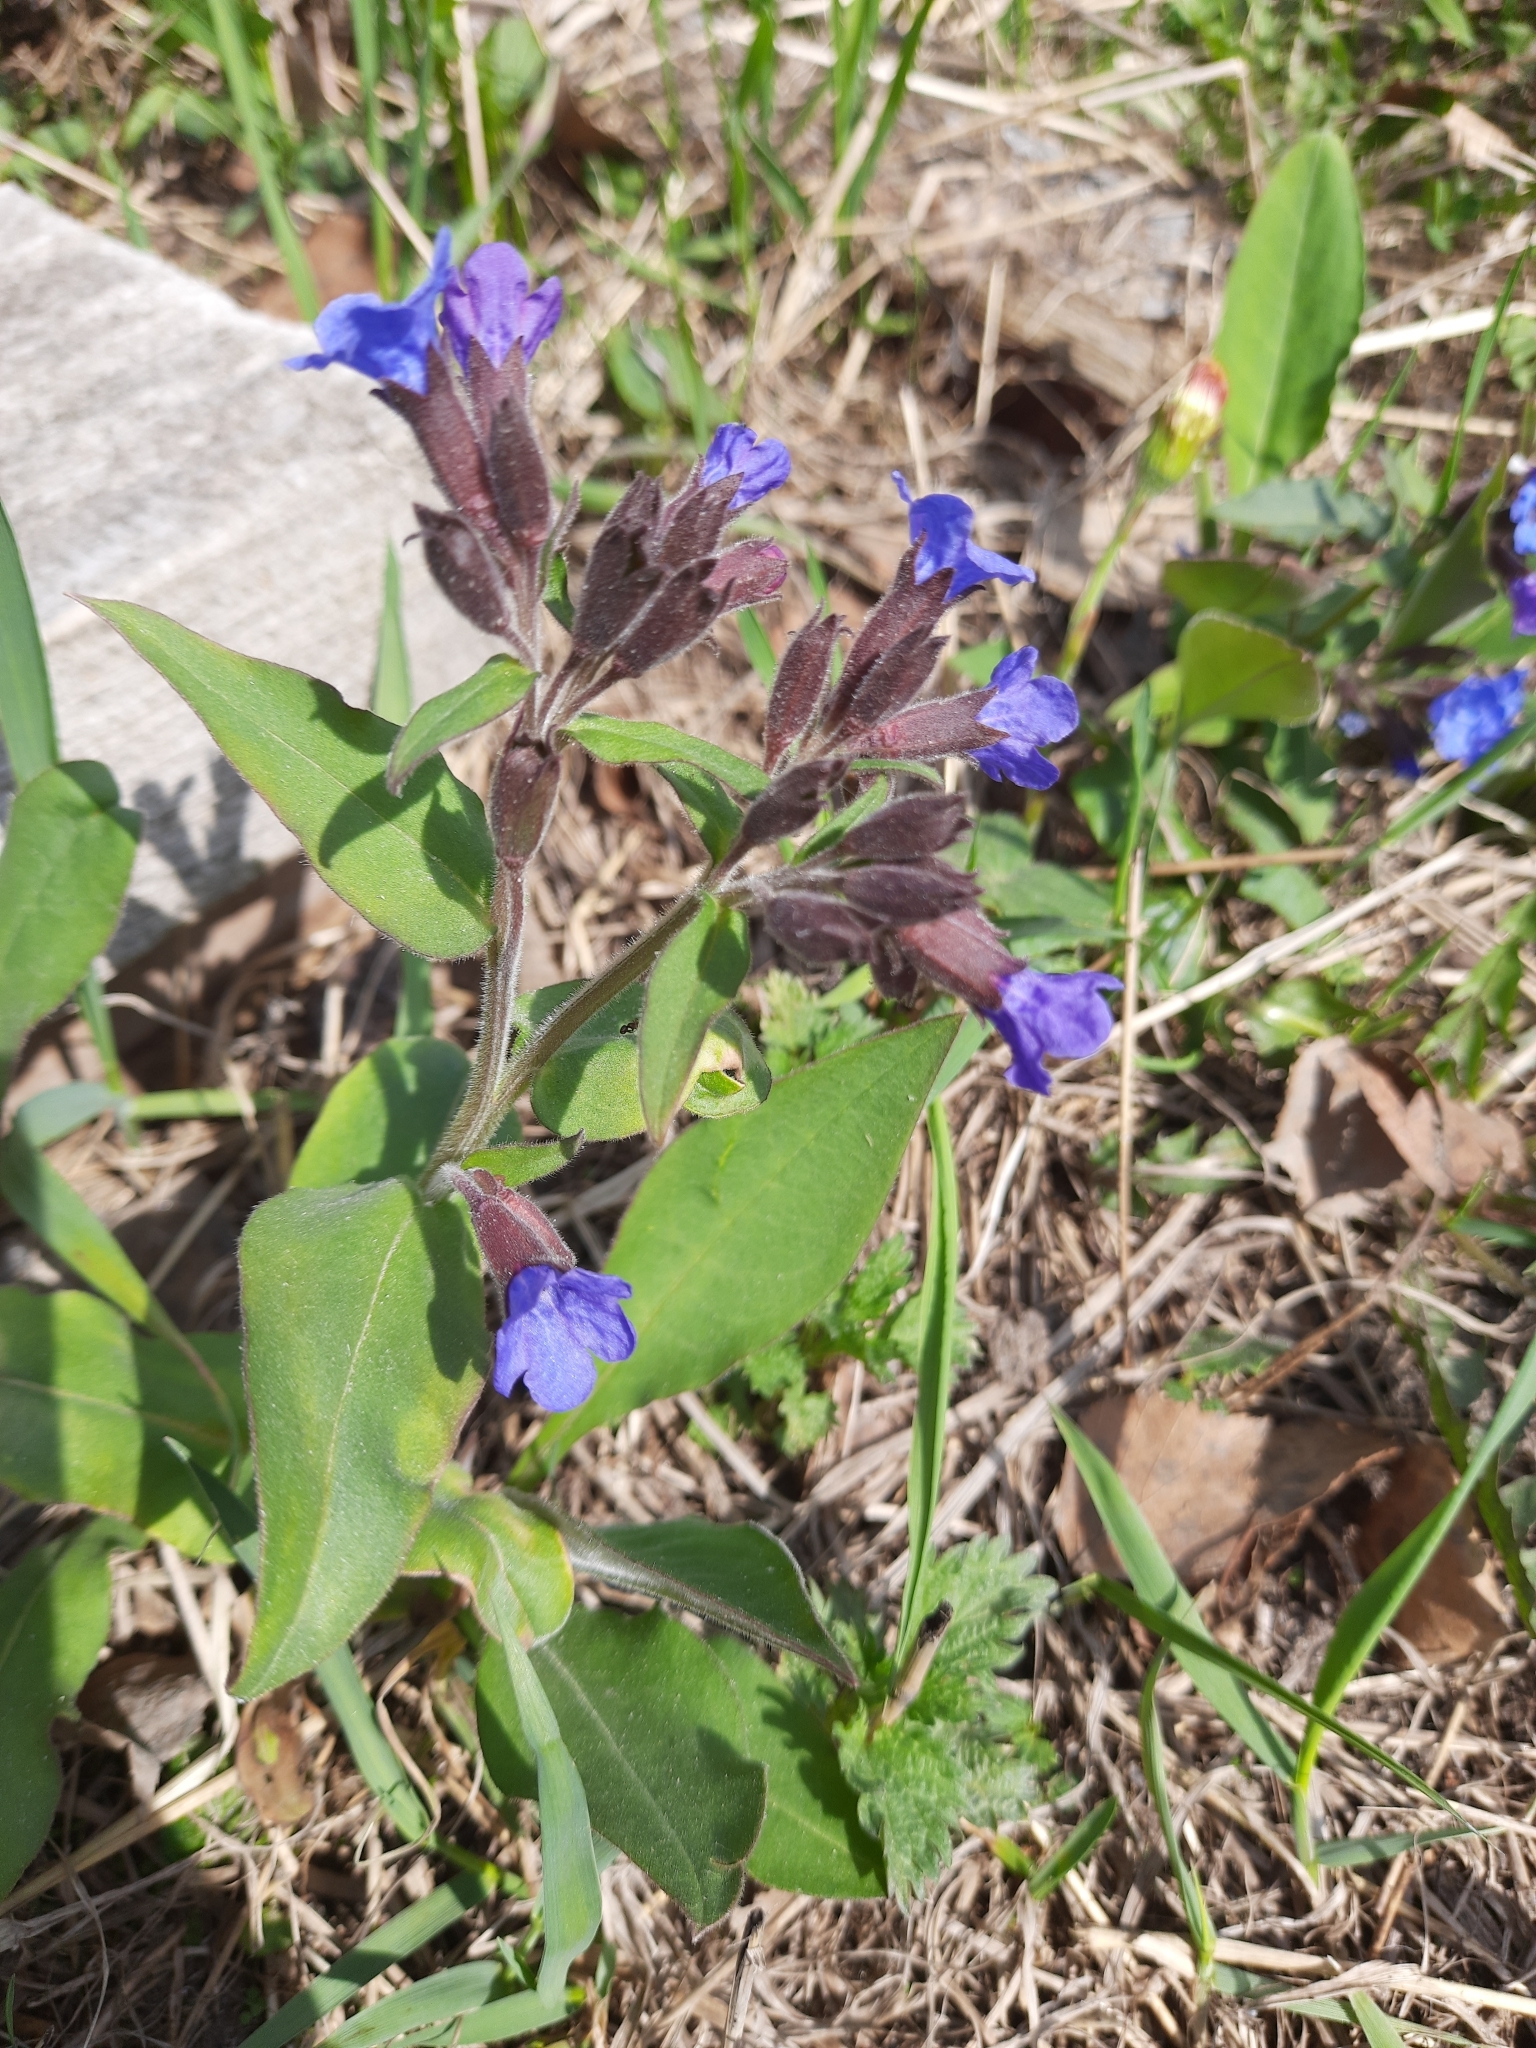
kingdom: Plantae
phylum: Tracheophyta
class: Magnoliopsida
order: Boraginales
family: Boraginaceae
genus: Pulmonaria
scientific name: Pulmonaria mollis
